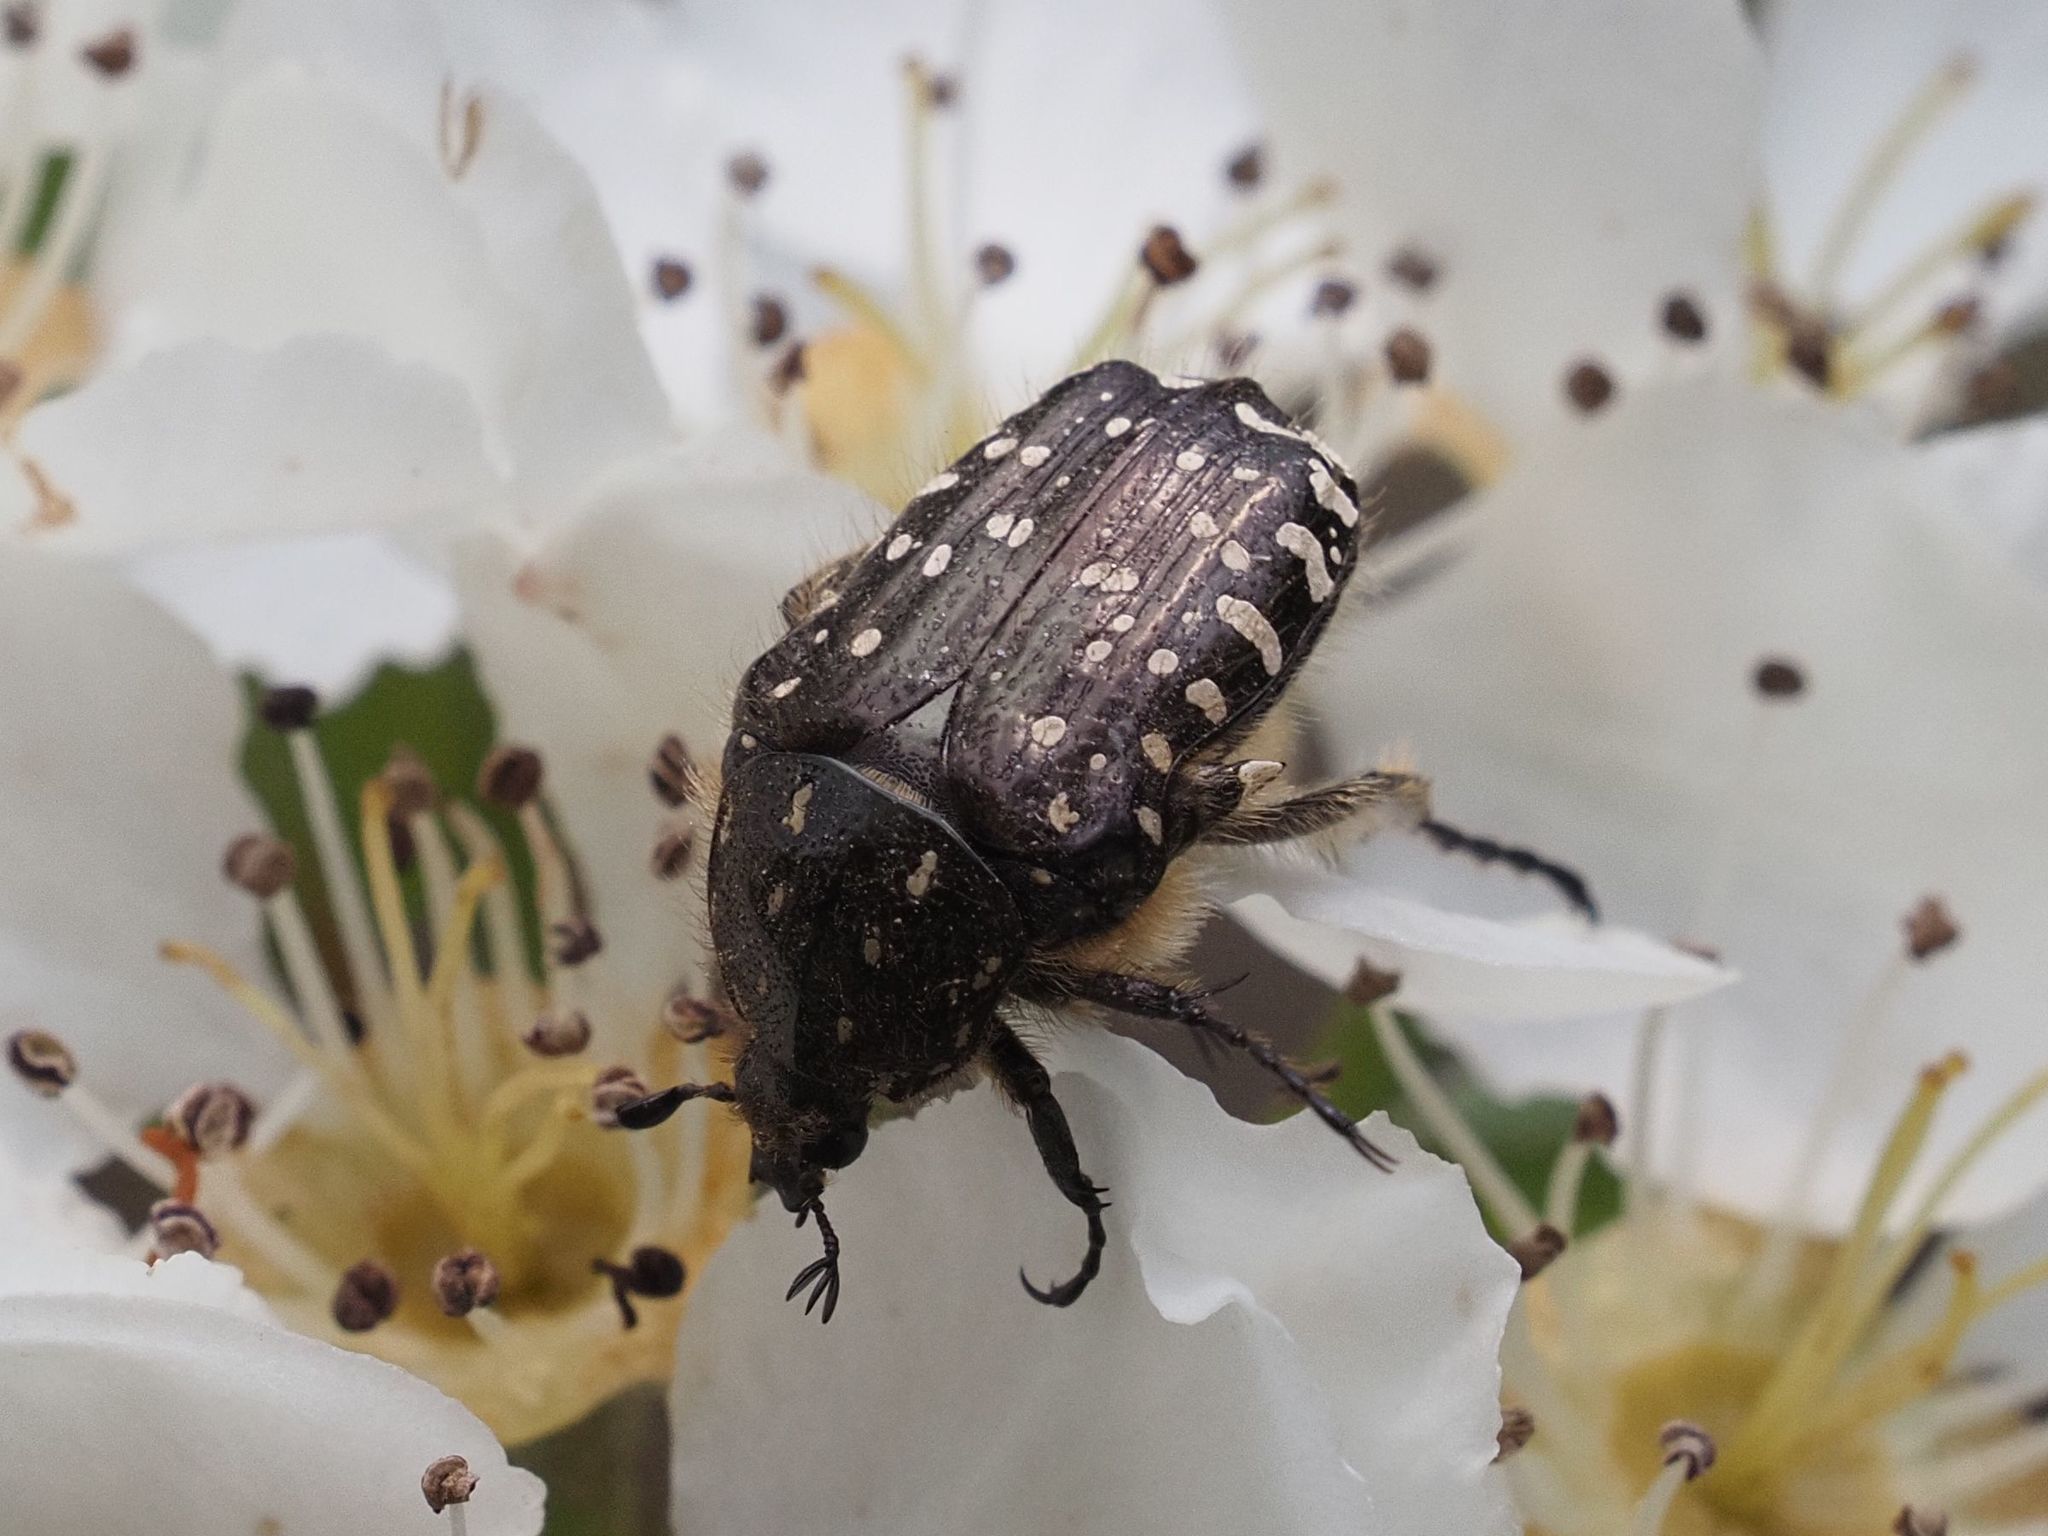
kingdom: Animalia
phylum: Arthropoda
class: Insecta
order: Coleoptera
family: Scarabaeidae
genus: Oxythyrea
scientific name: Oxythyrea funesta
